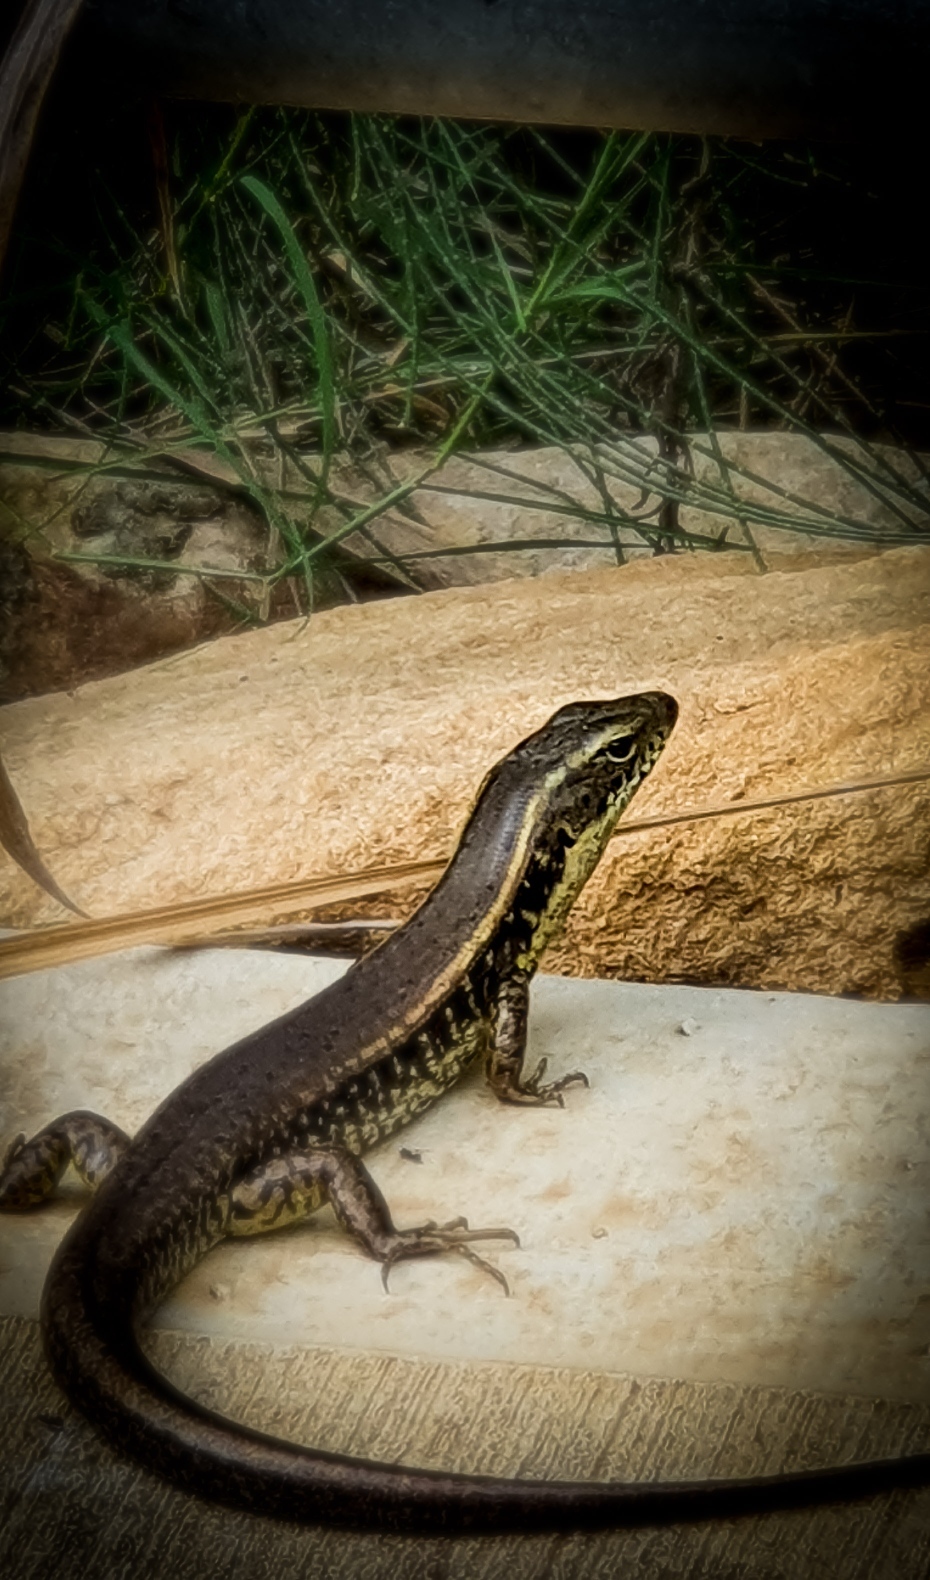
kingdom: Animalia
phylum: Chordata
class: Squamata
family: Scincidae
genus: Eulamprus
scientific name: Eulamprus quoyii
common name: Eastern water skink
